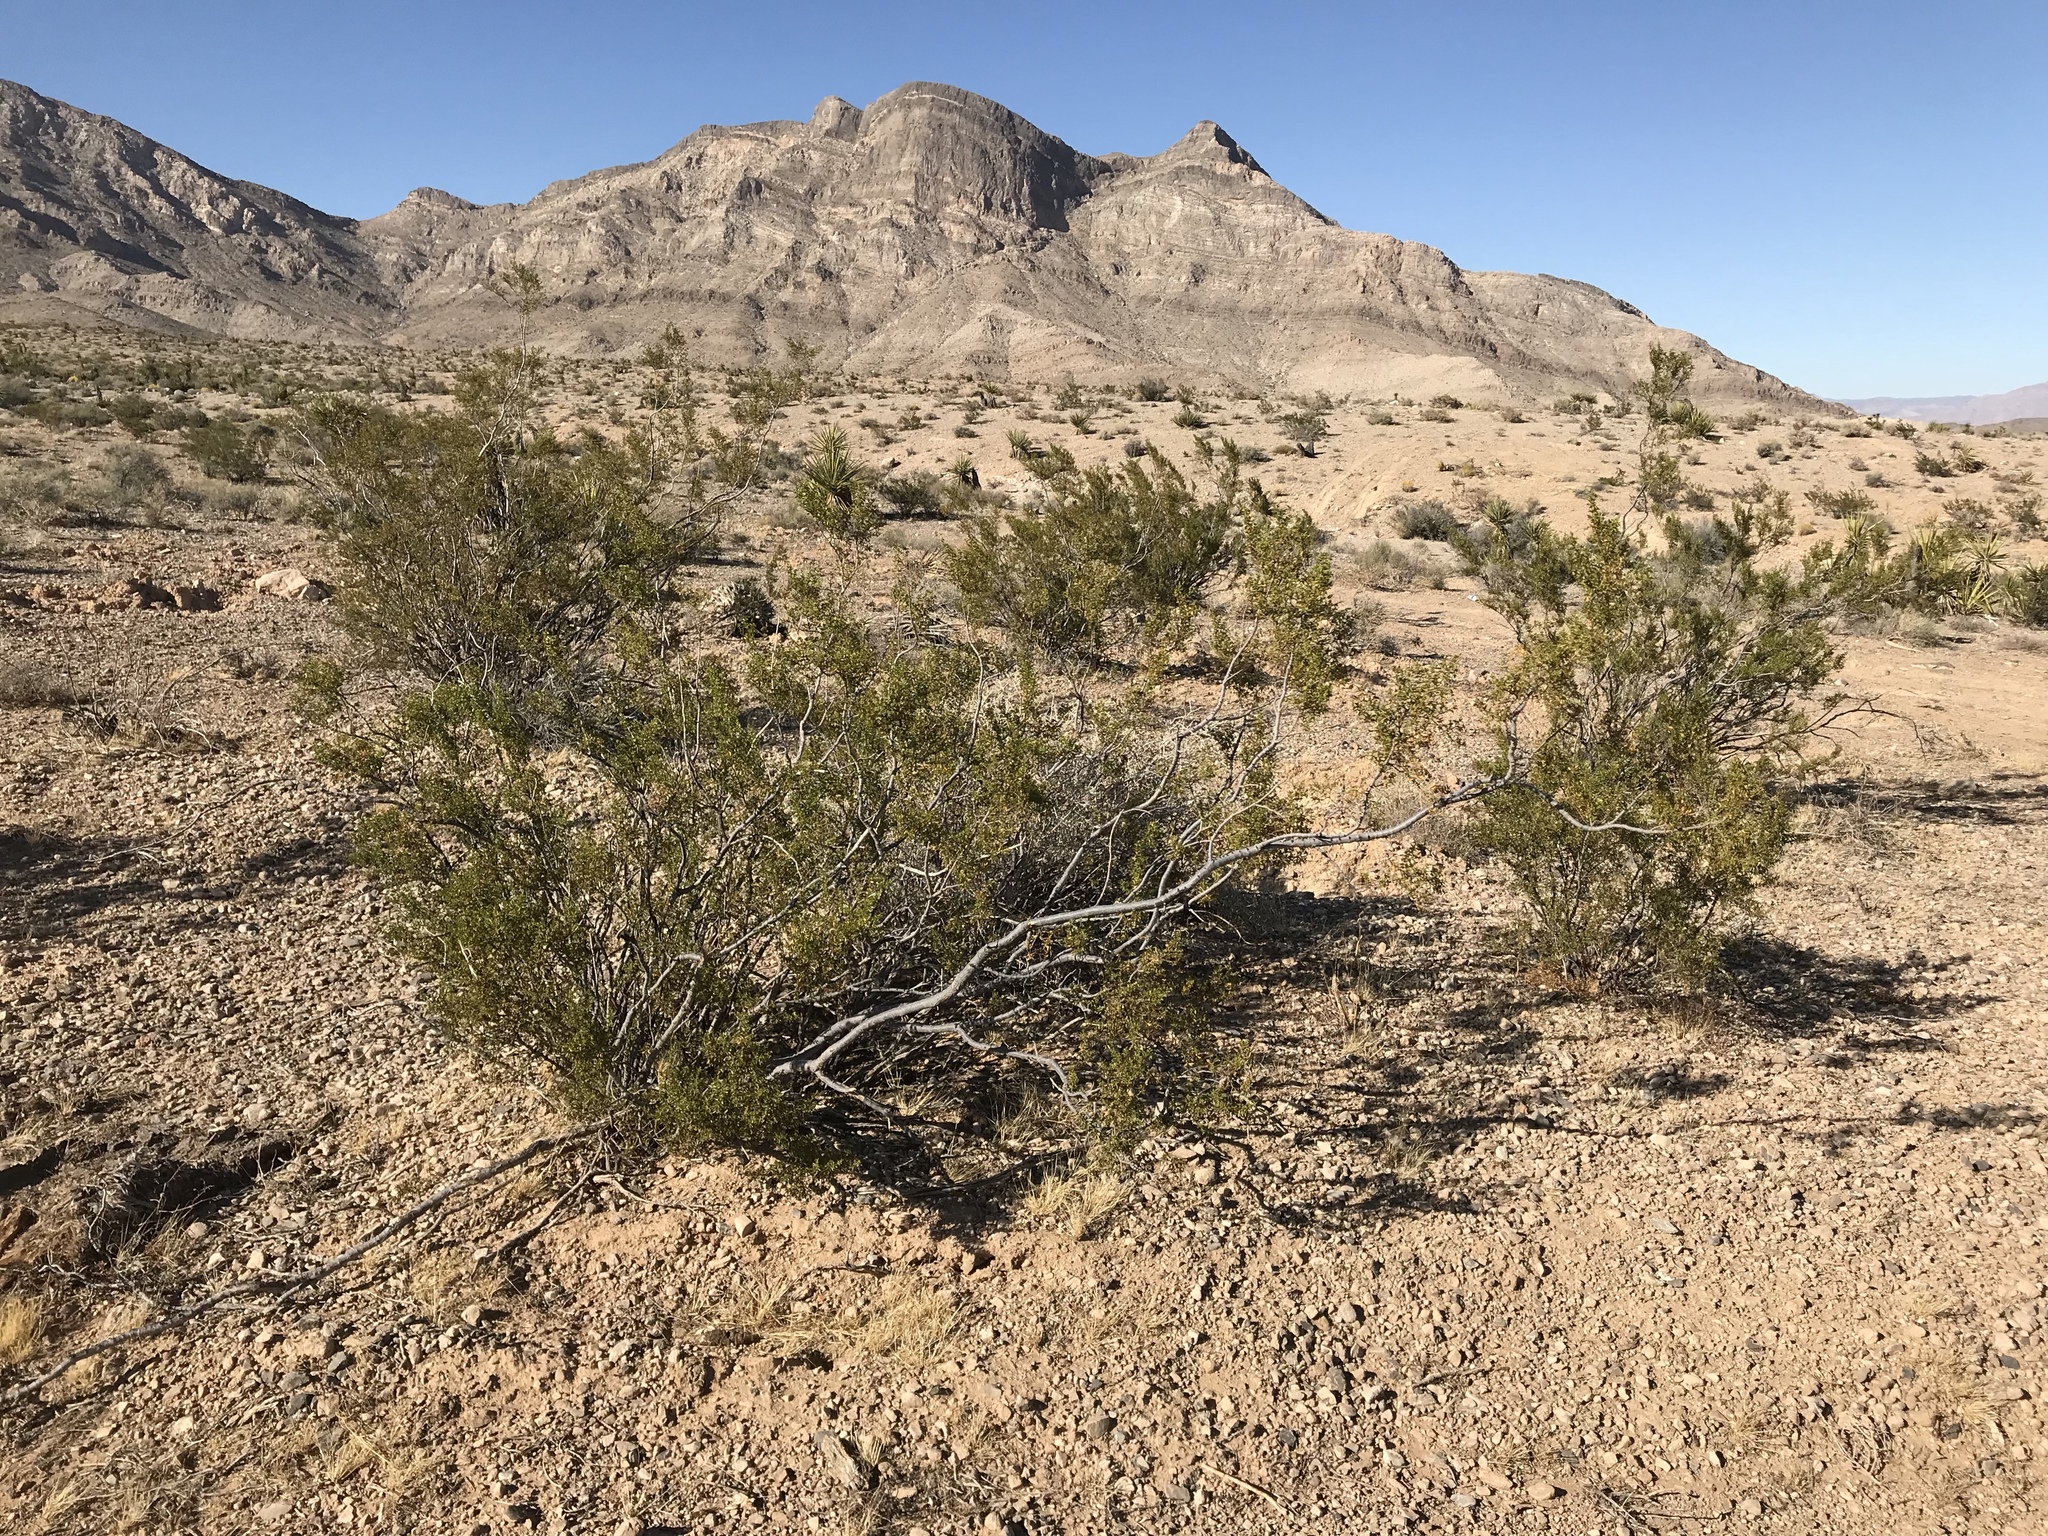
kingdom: Plantae
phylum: Tracheophyta
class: Magnoliopsida
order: Zygophyllales
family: Zygophyllaceae
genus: Larrea
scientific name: Larrea tridentata
